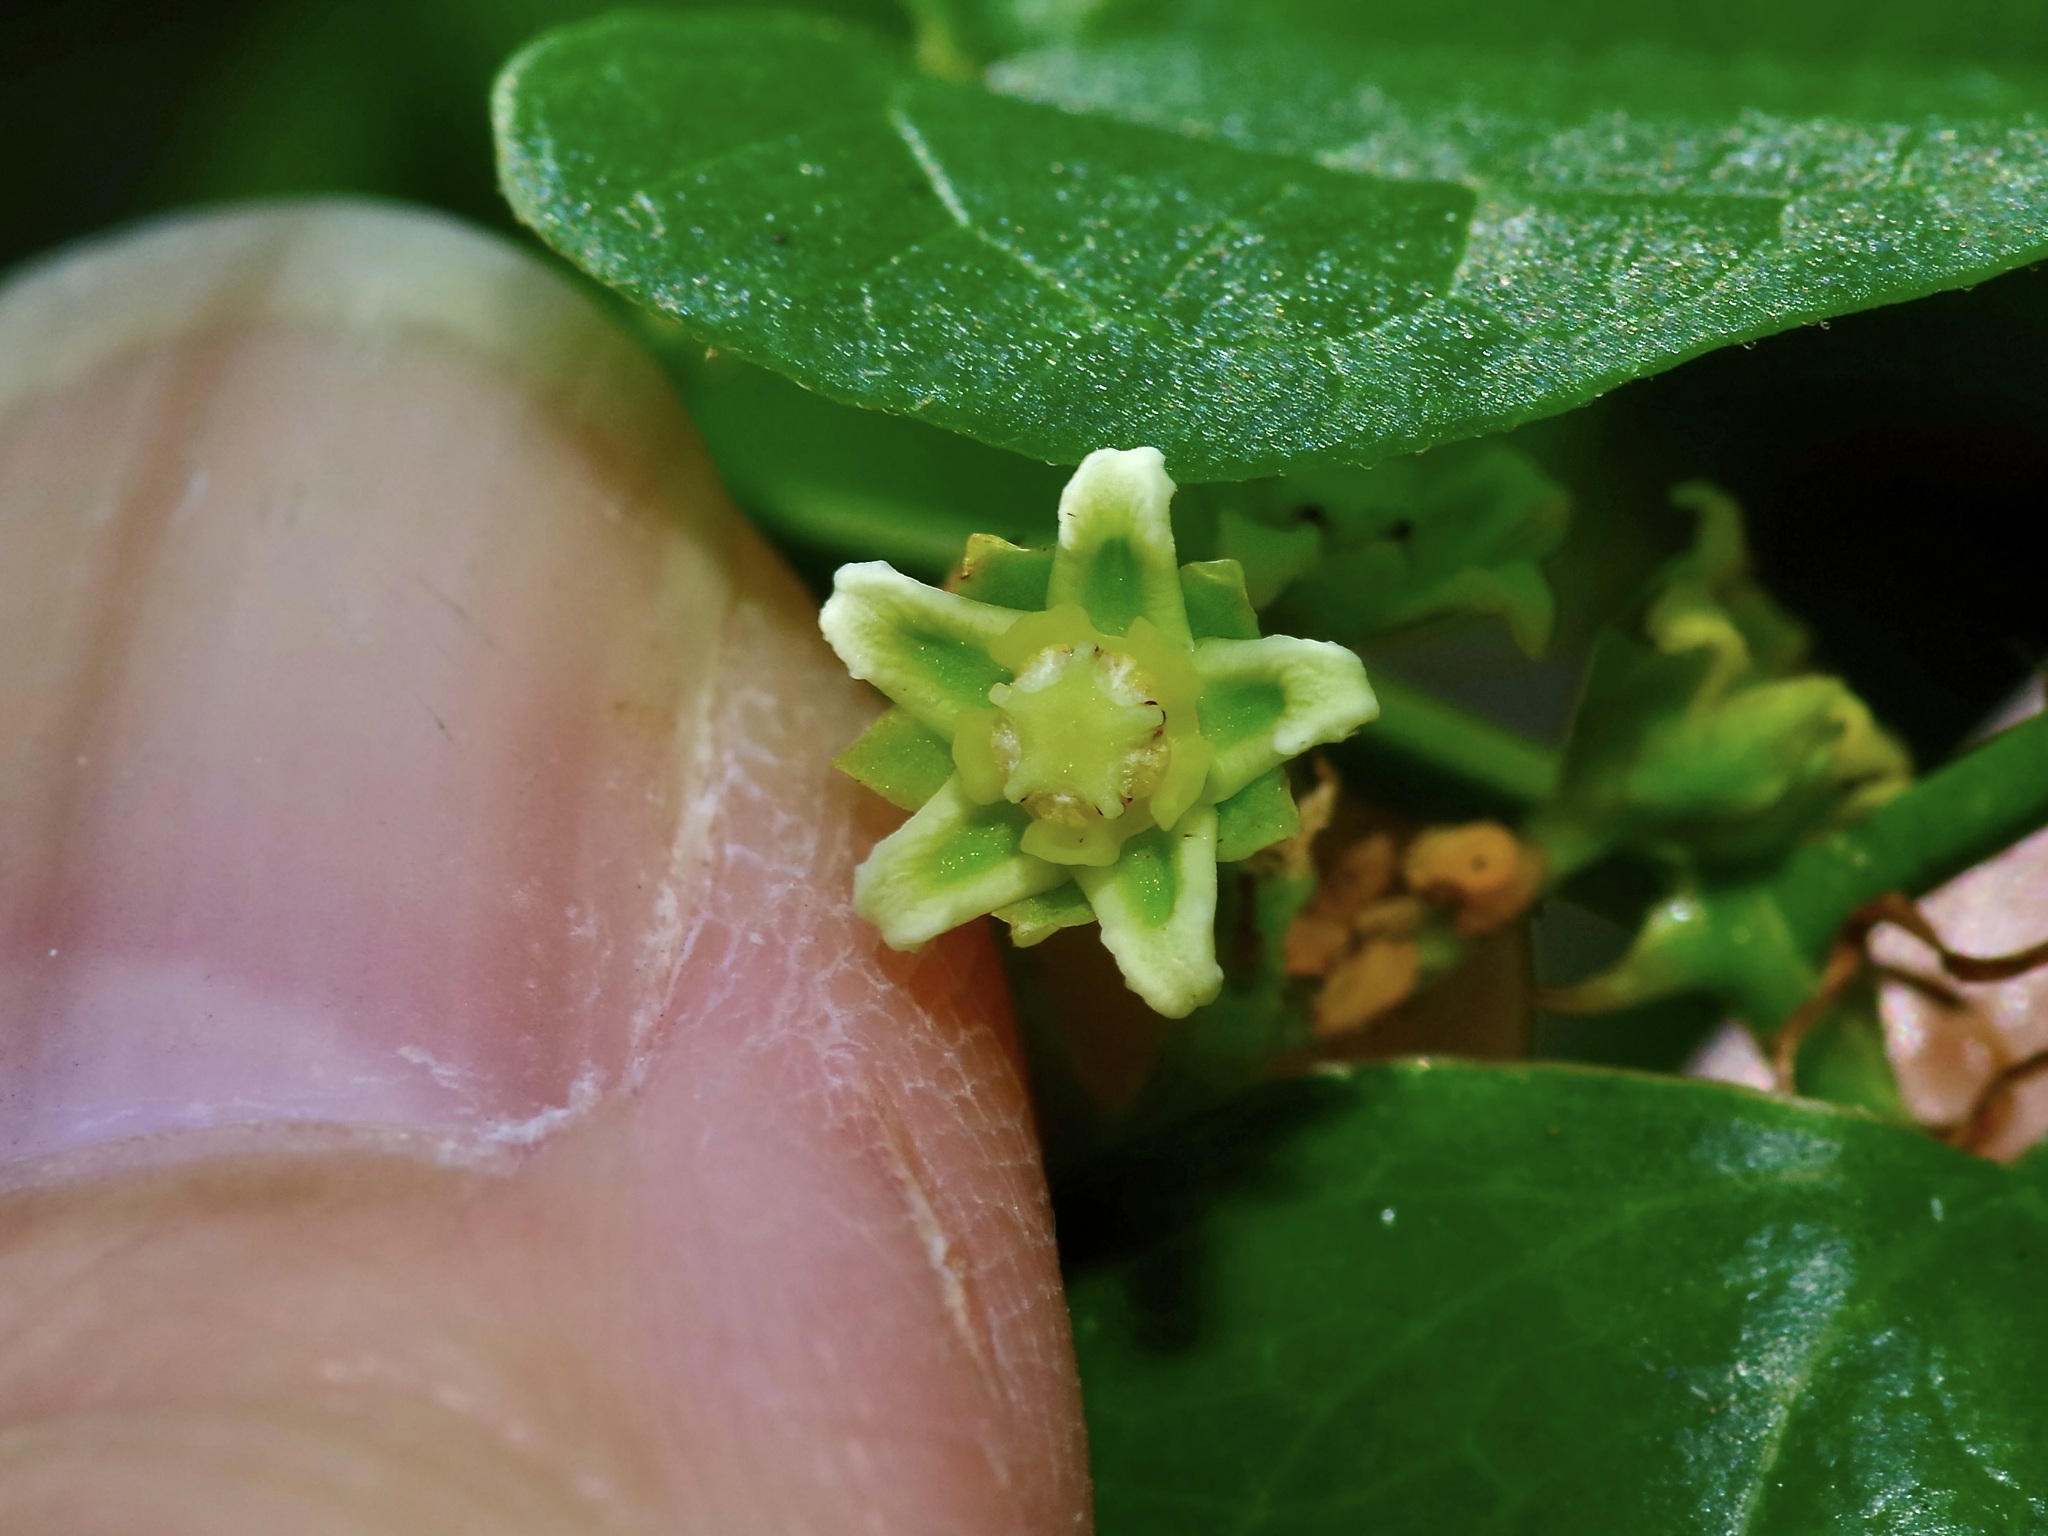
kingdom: Plantae
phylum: Tracheophyta
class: Magnoliopsida
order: Gentianales
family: Apocynaceae
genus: Cynanchum
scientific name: Cynanchum racemosum
